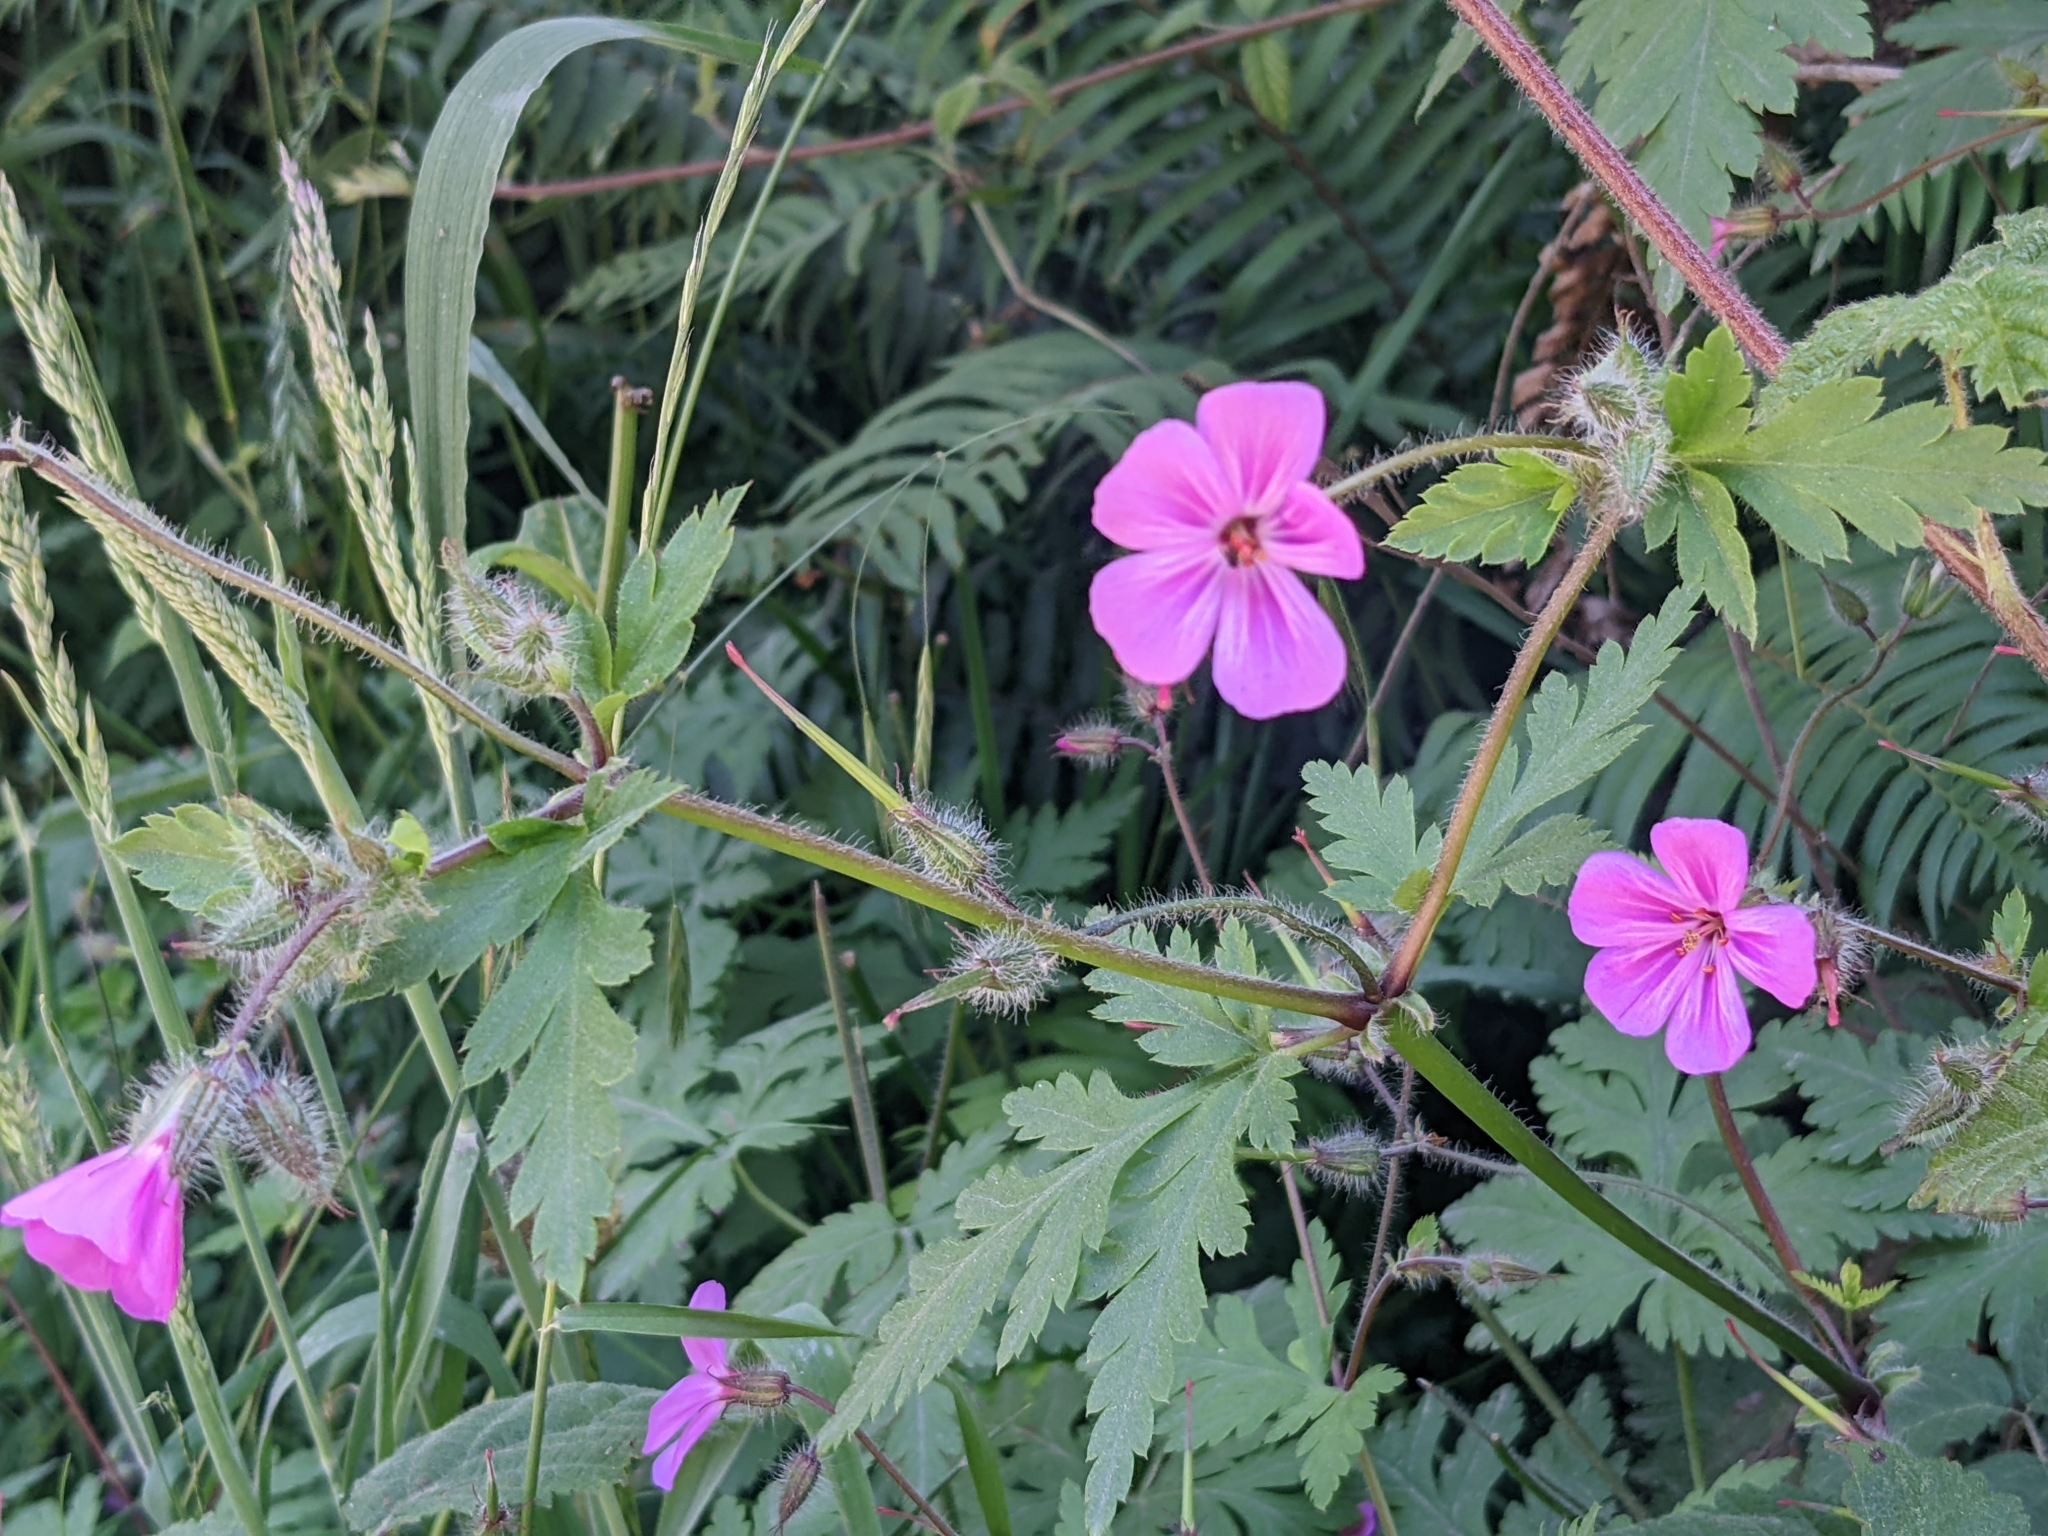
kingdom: Plantae
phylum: Tracheophyta
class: Magnoliopsida
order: Geraniales
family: Geraniaceae
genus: Geranium
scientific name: Geranium yeoi
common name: Greater herb robert
